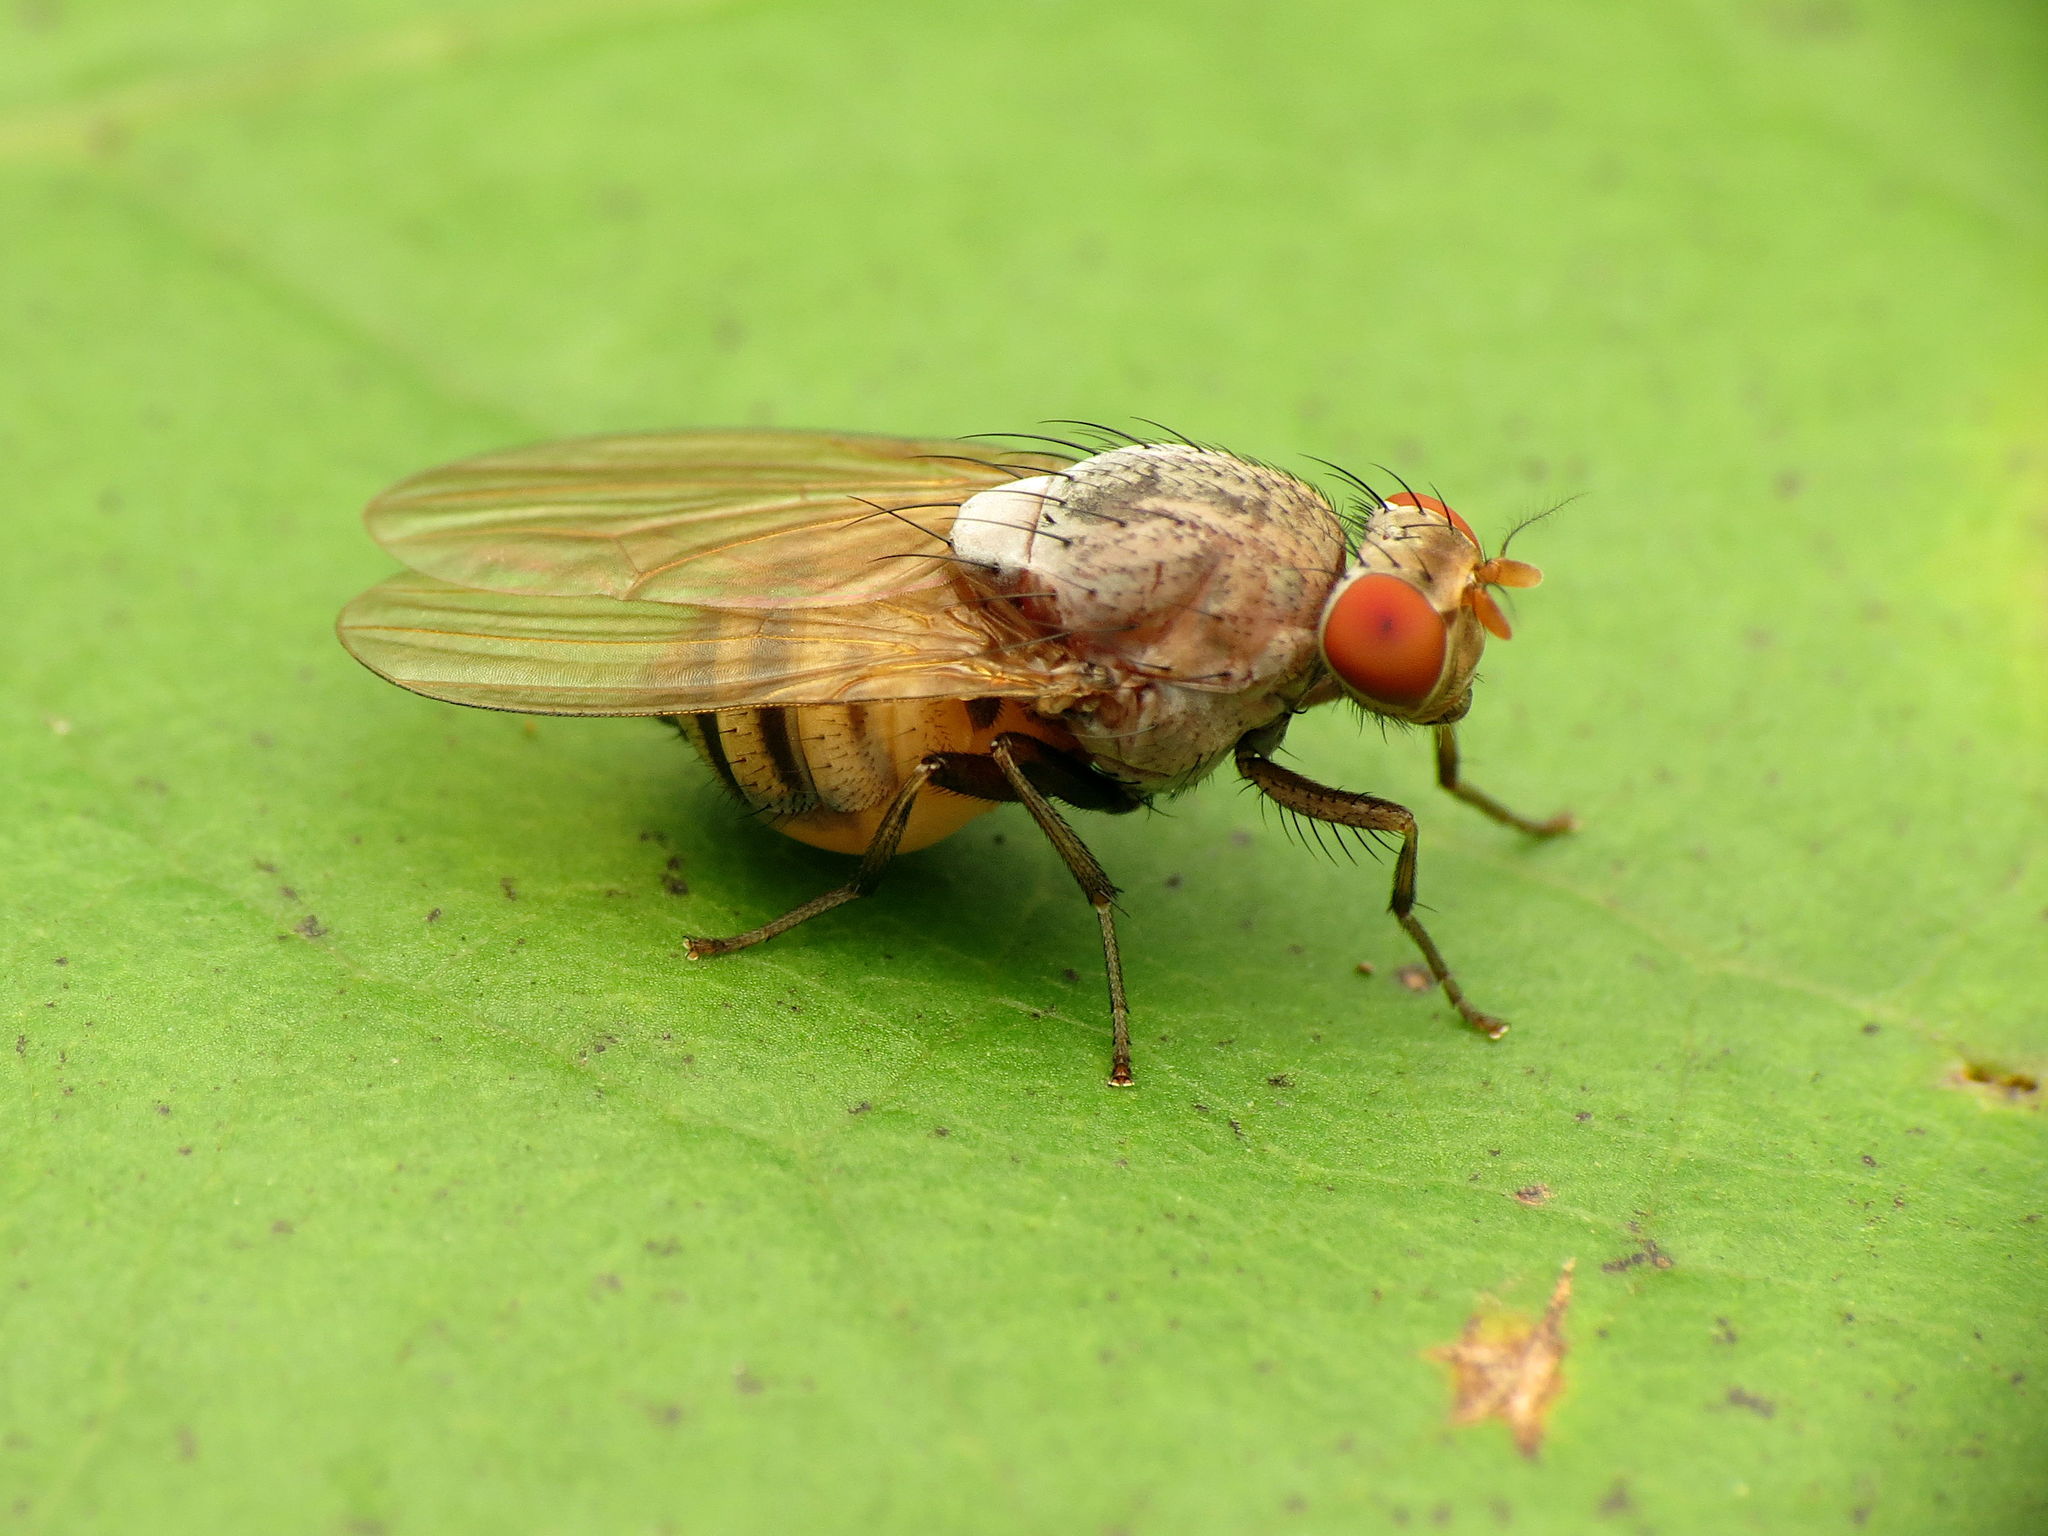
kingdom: Animalia
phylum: Arthropoda
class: Insecta
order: Diptera
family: Lauxaniidae
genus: Minettia
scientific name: Minettia magna
